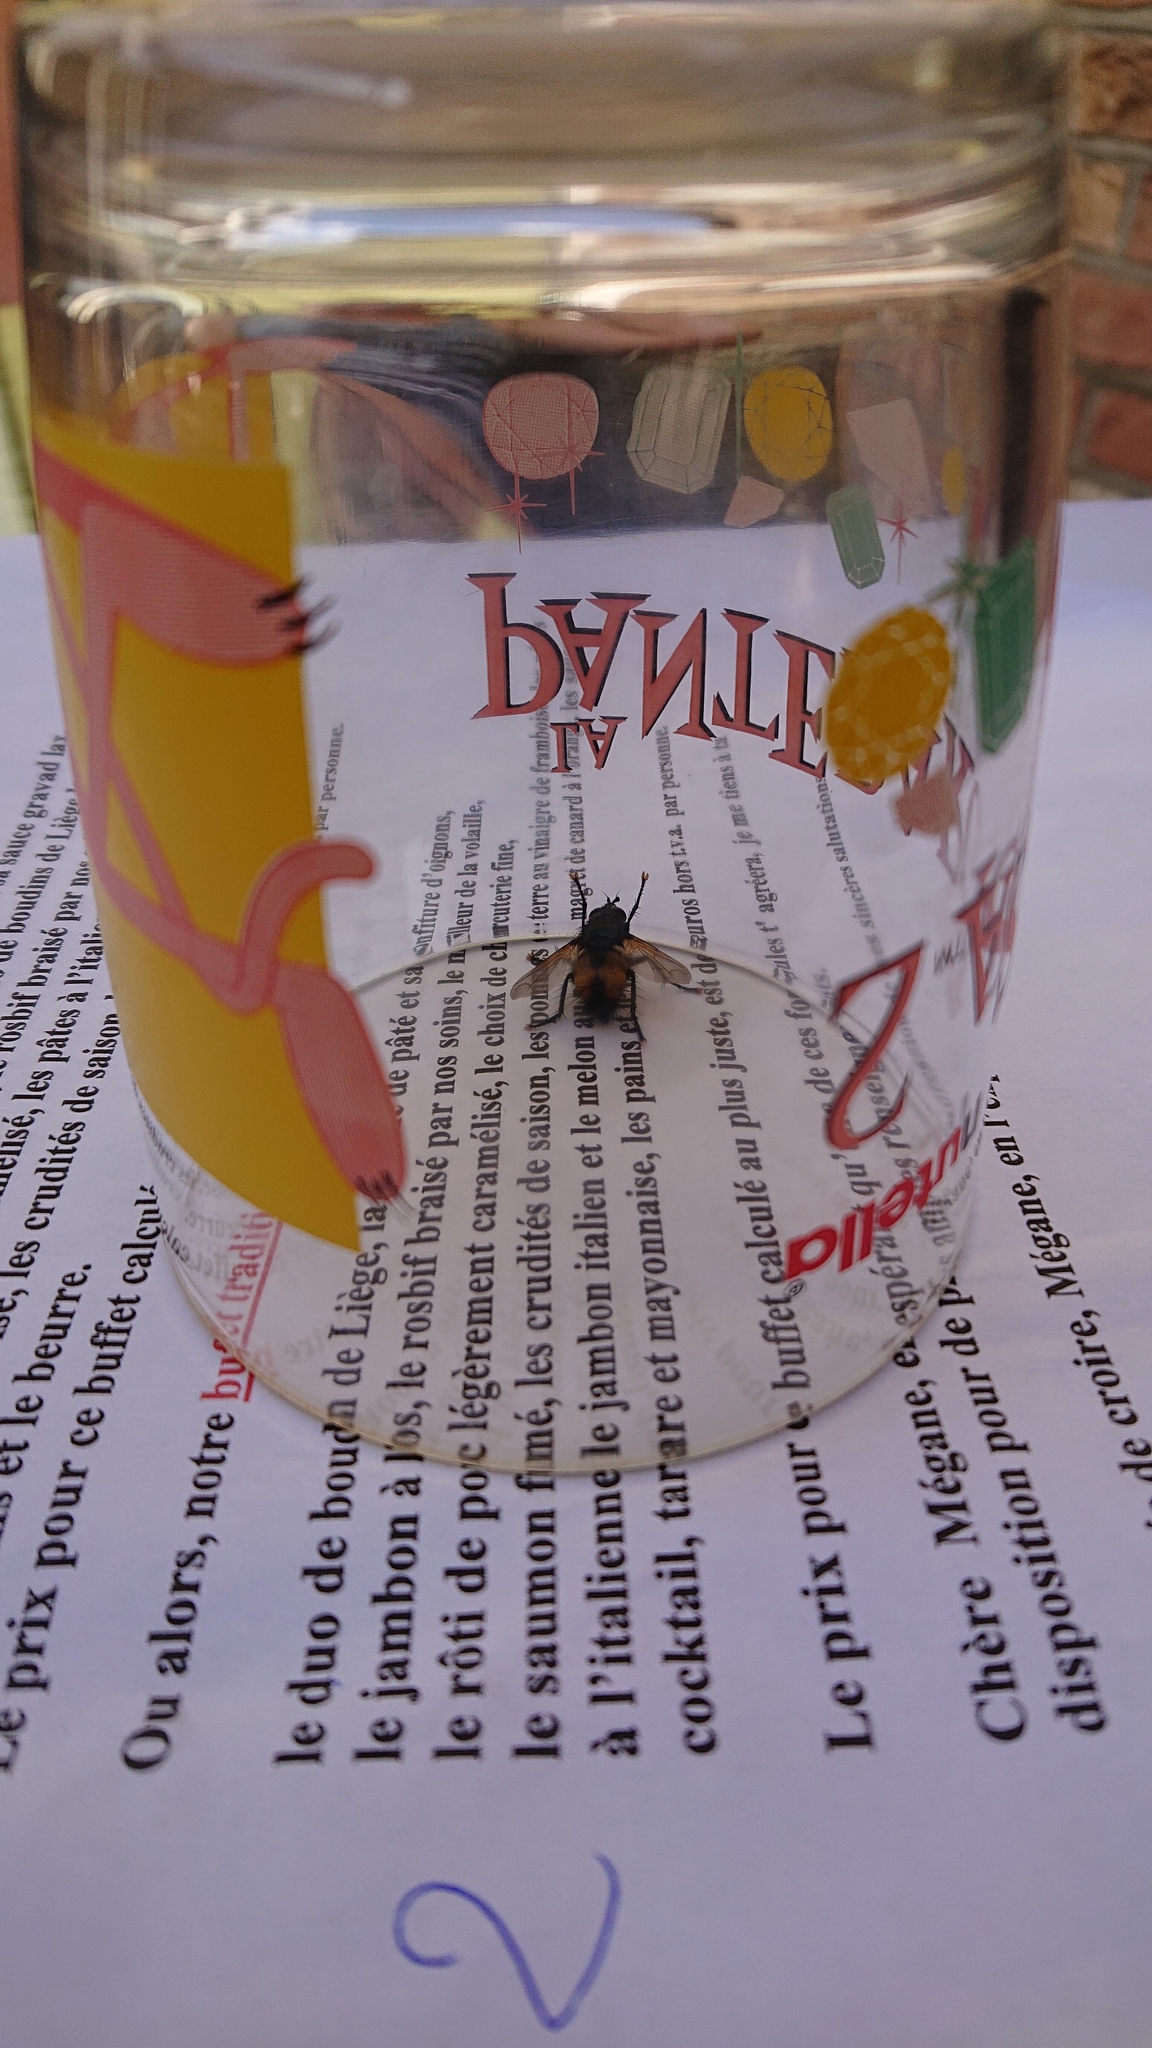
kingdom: Animalia
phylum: Arthropoda
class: Insecta
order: Diptera
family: Tachinidae
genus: Tachina
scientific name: Tachina fera
